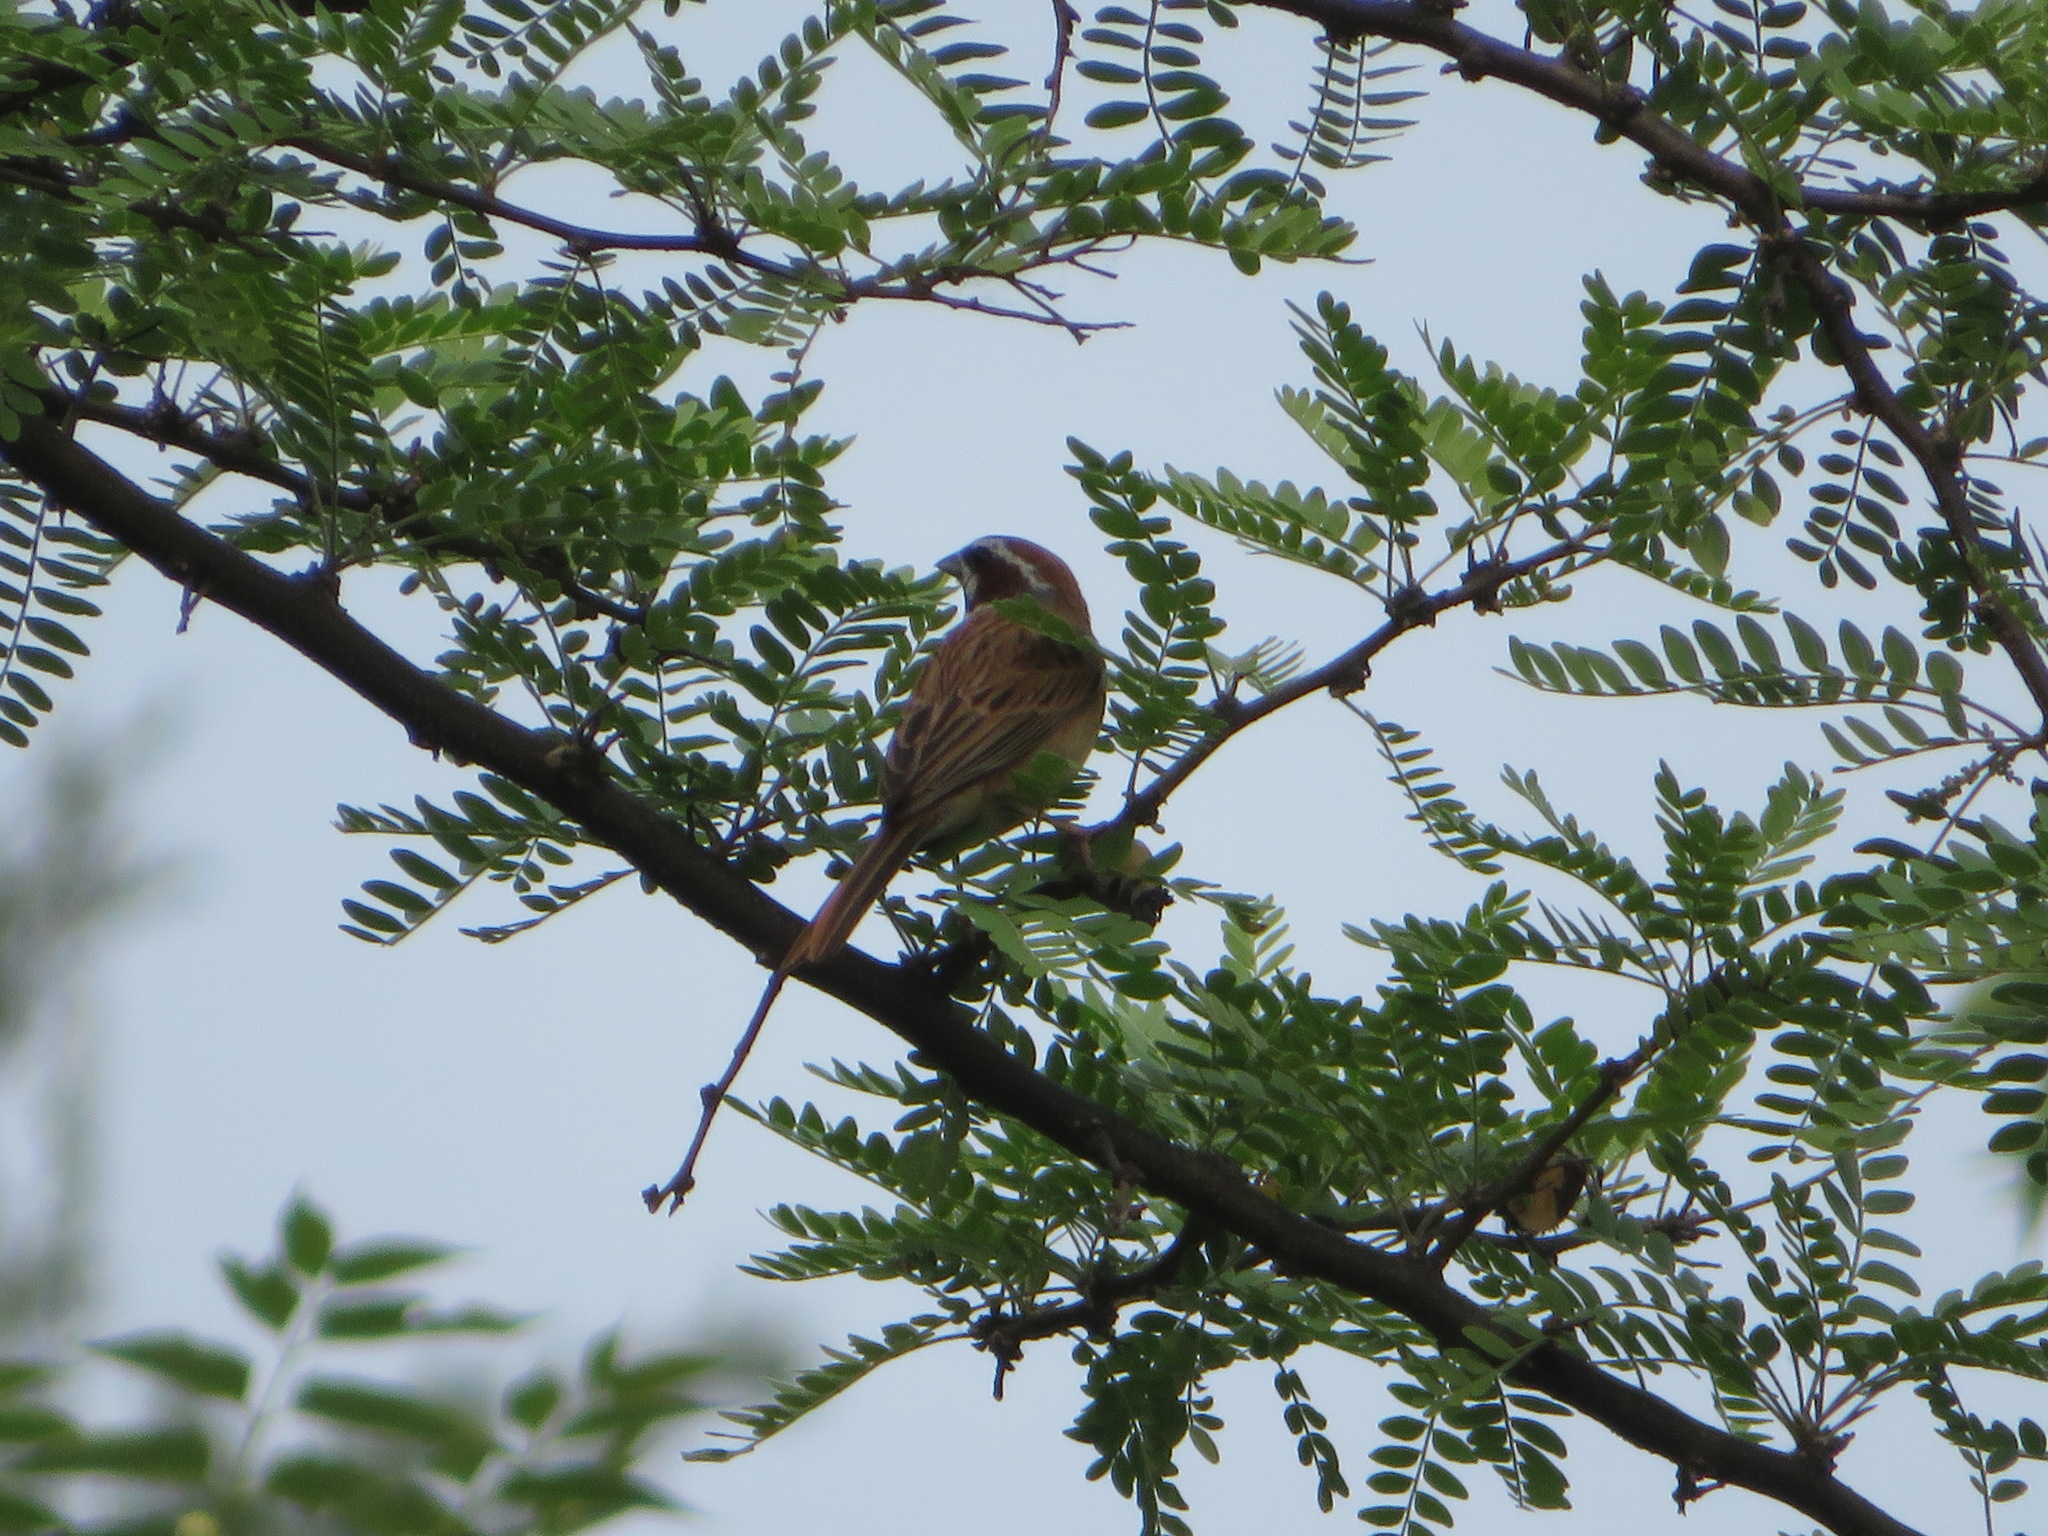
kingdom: Animalia
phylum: Chordata
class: Aves
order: Passeriformes
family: Emberizidae
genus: Emberiza
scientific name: Emberiza cioides
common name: Meadow bunting
